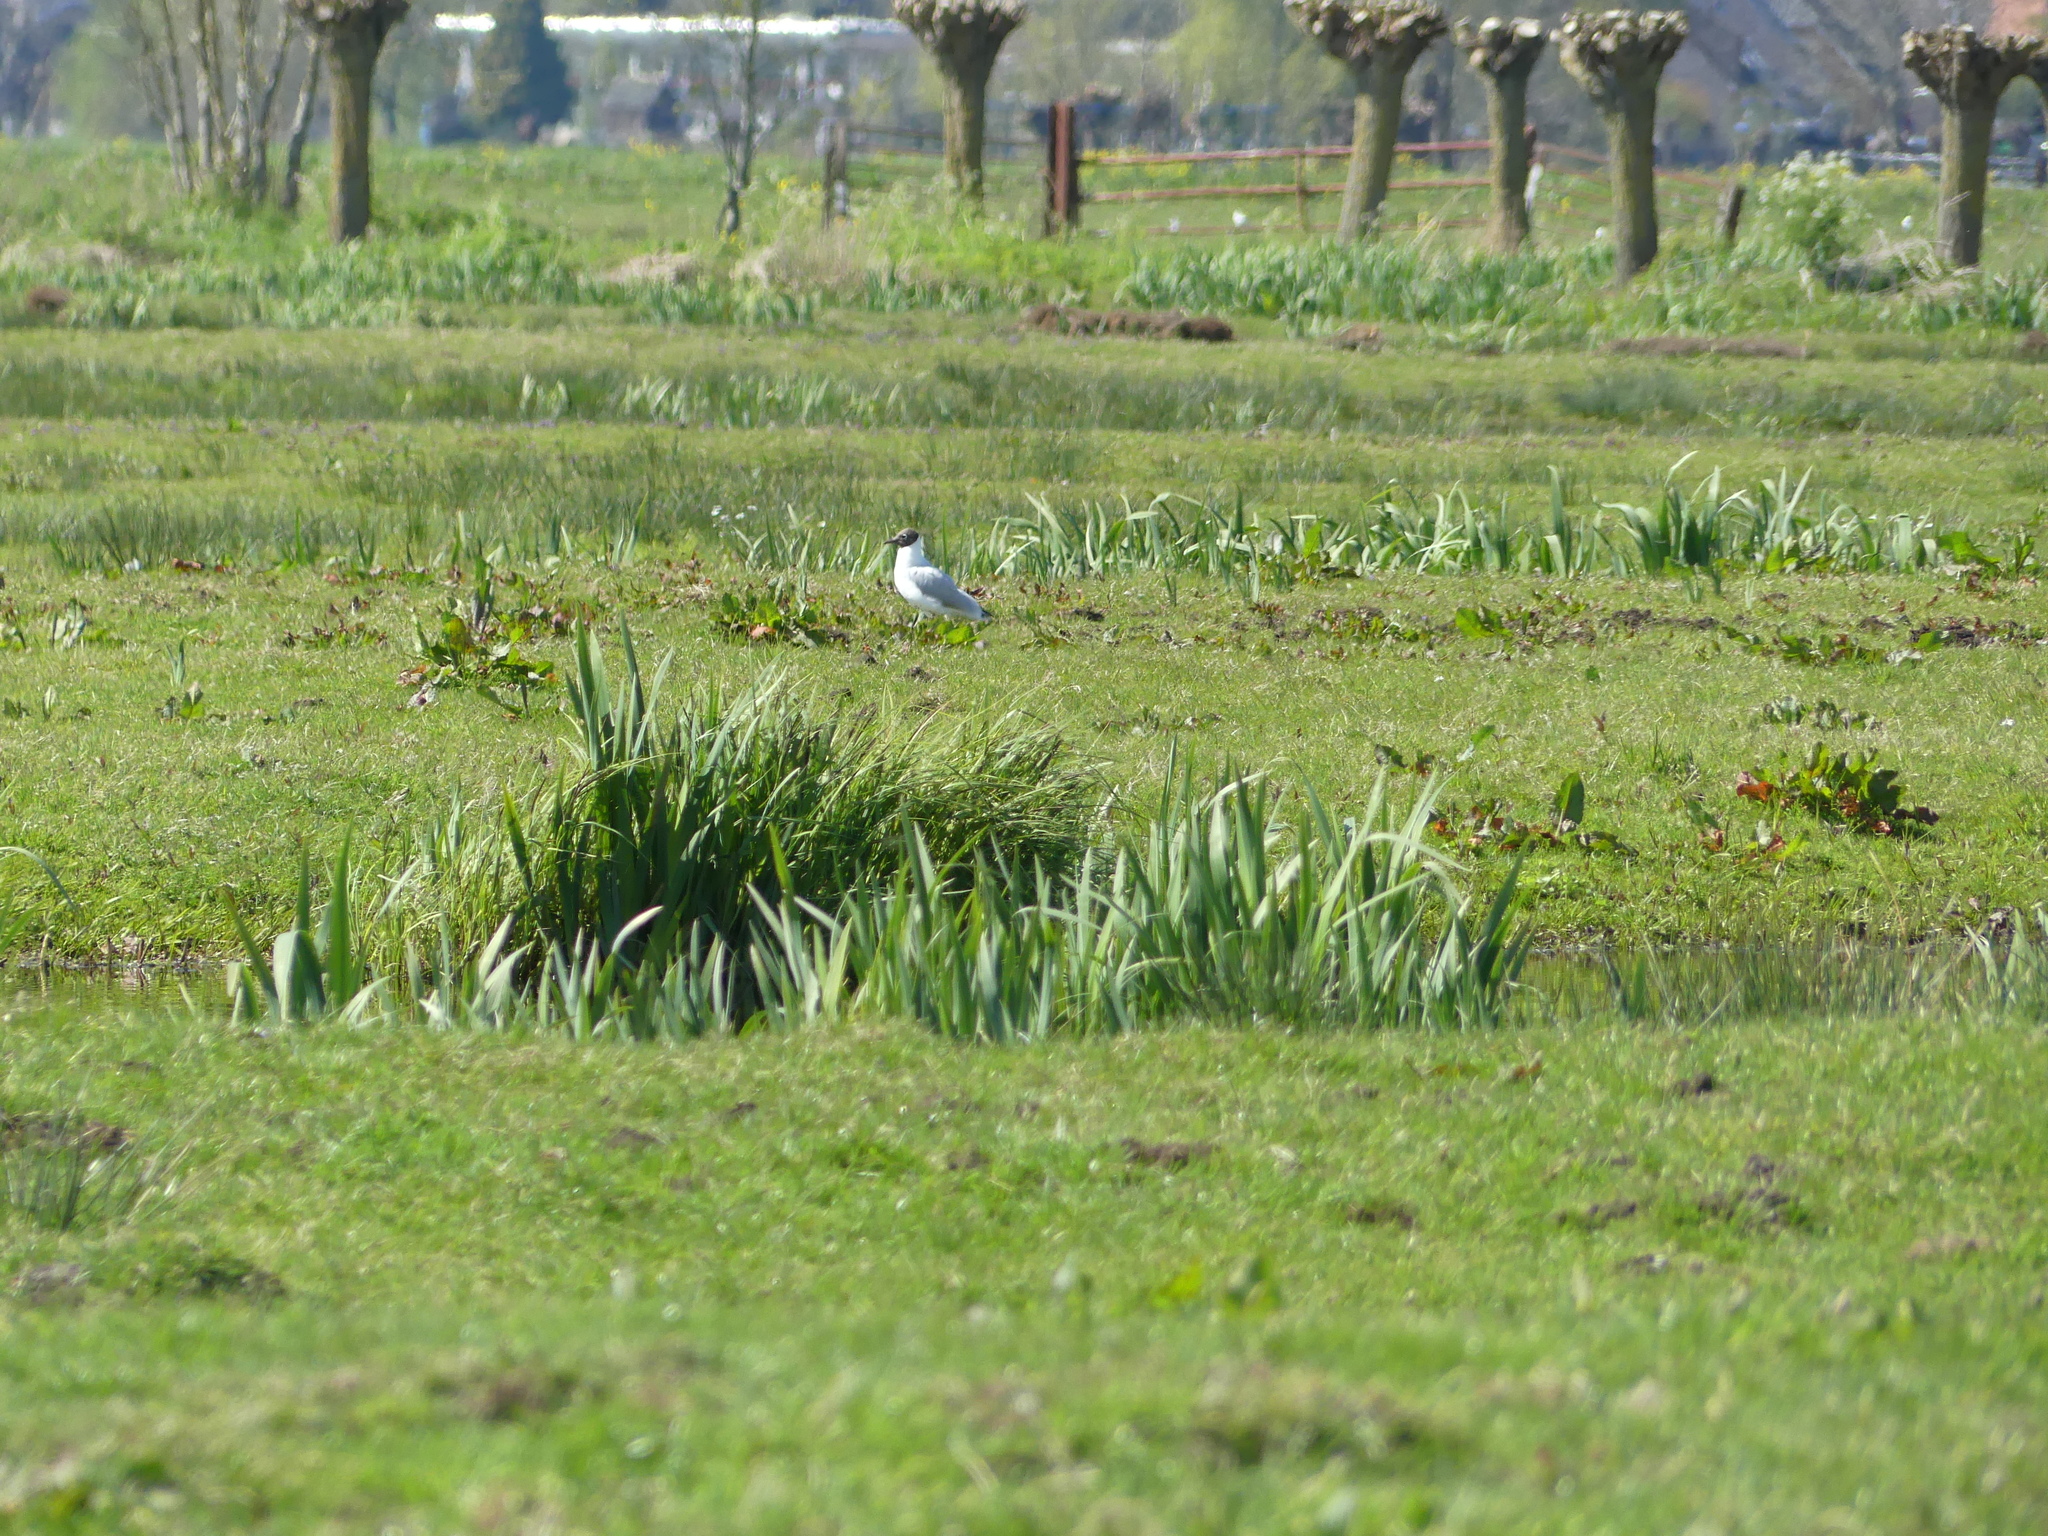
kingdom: Animalia
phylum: Chordata
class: Aves
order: Charadriiformes
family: Laridae
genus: Chroicocephalus
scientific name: Chroicocephalus ridibundus
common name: Black-headed gull
